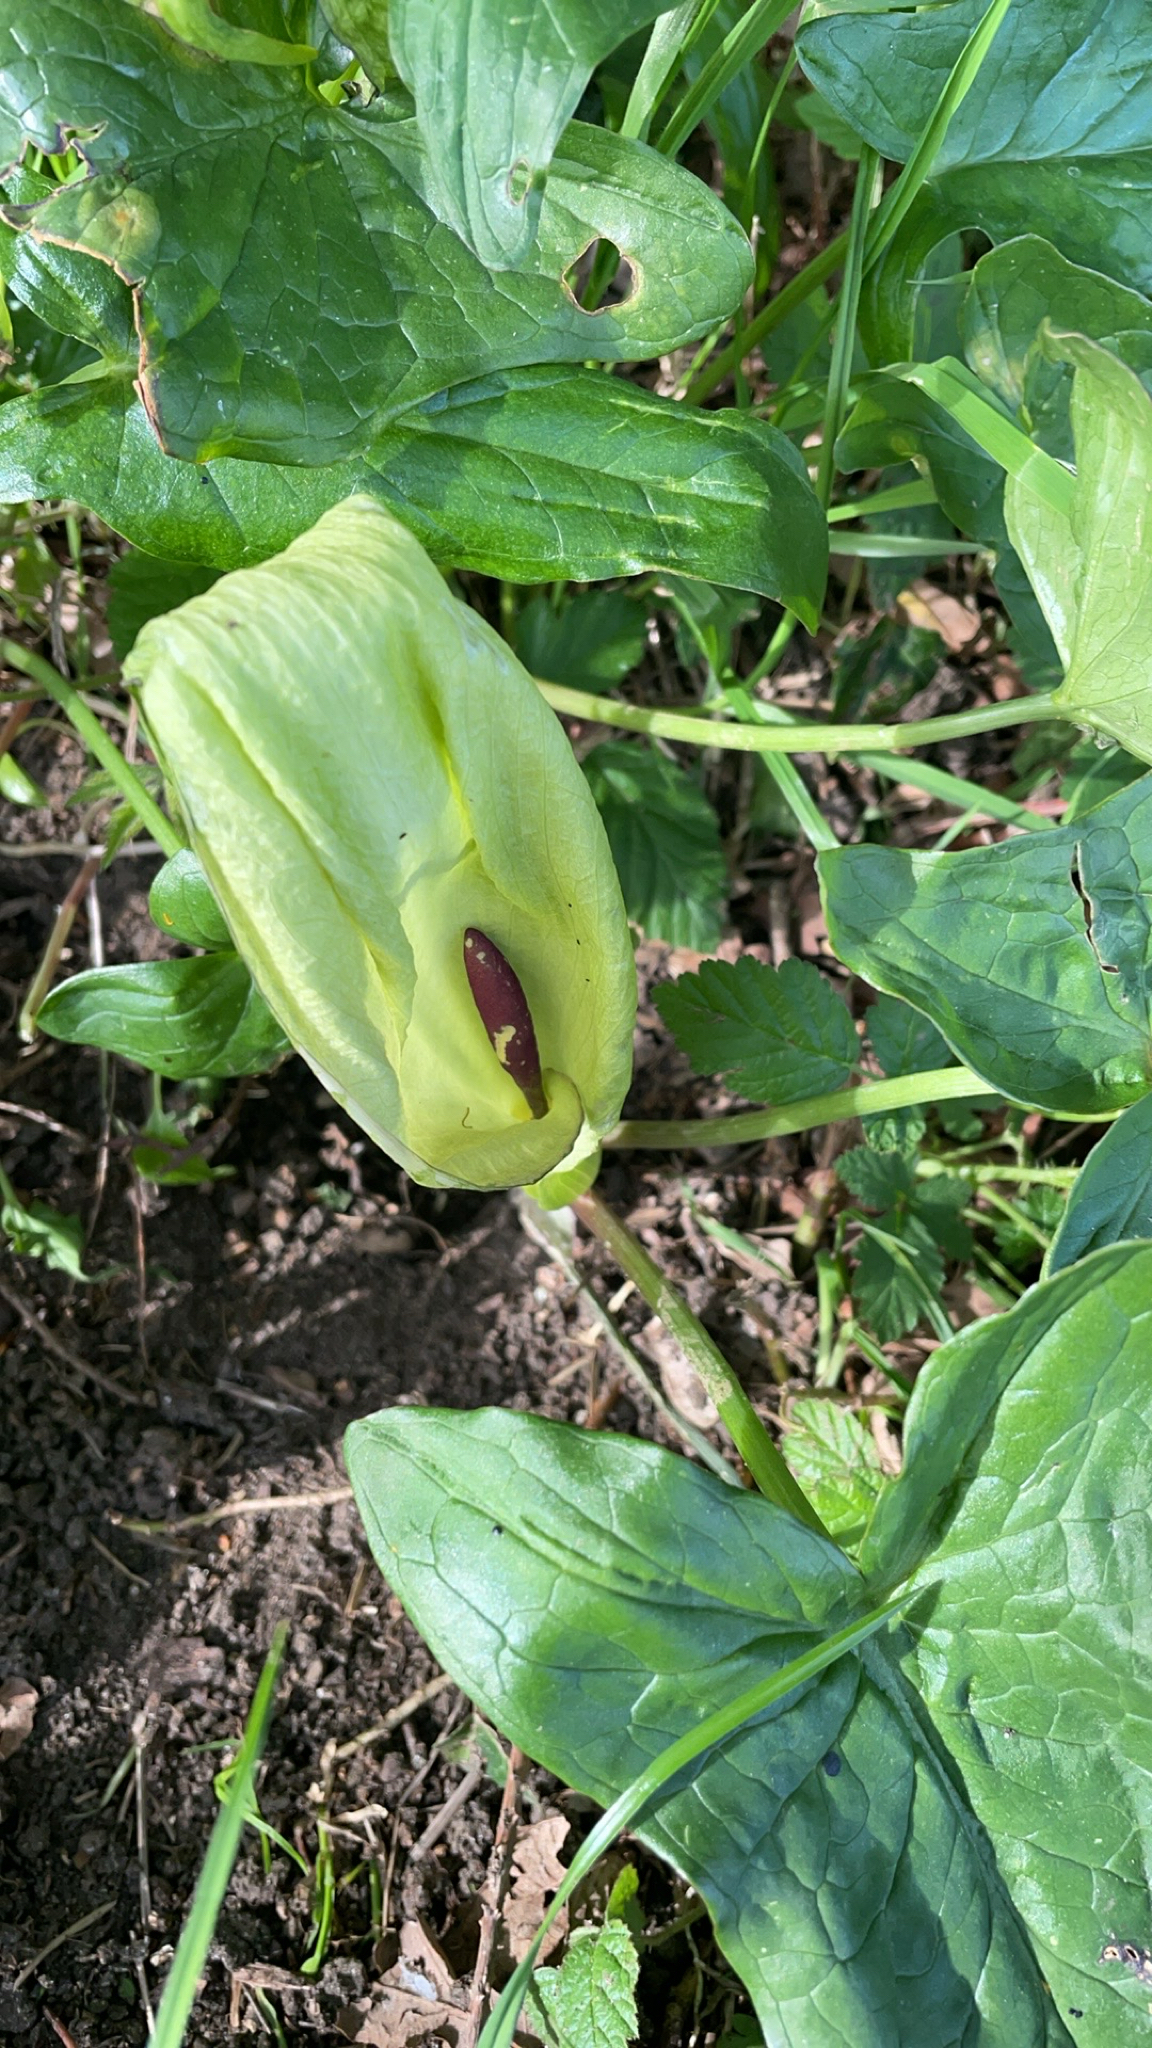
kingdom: Plantae
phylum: Tracheophyta
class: Liliopsida
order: Alismatales
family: Araceae
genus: Arum
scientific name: Arum maculatum
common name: Lords-and-ladies
